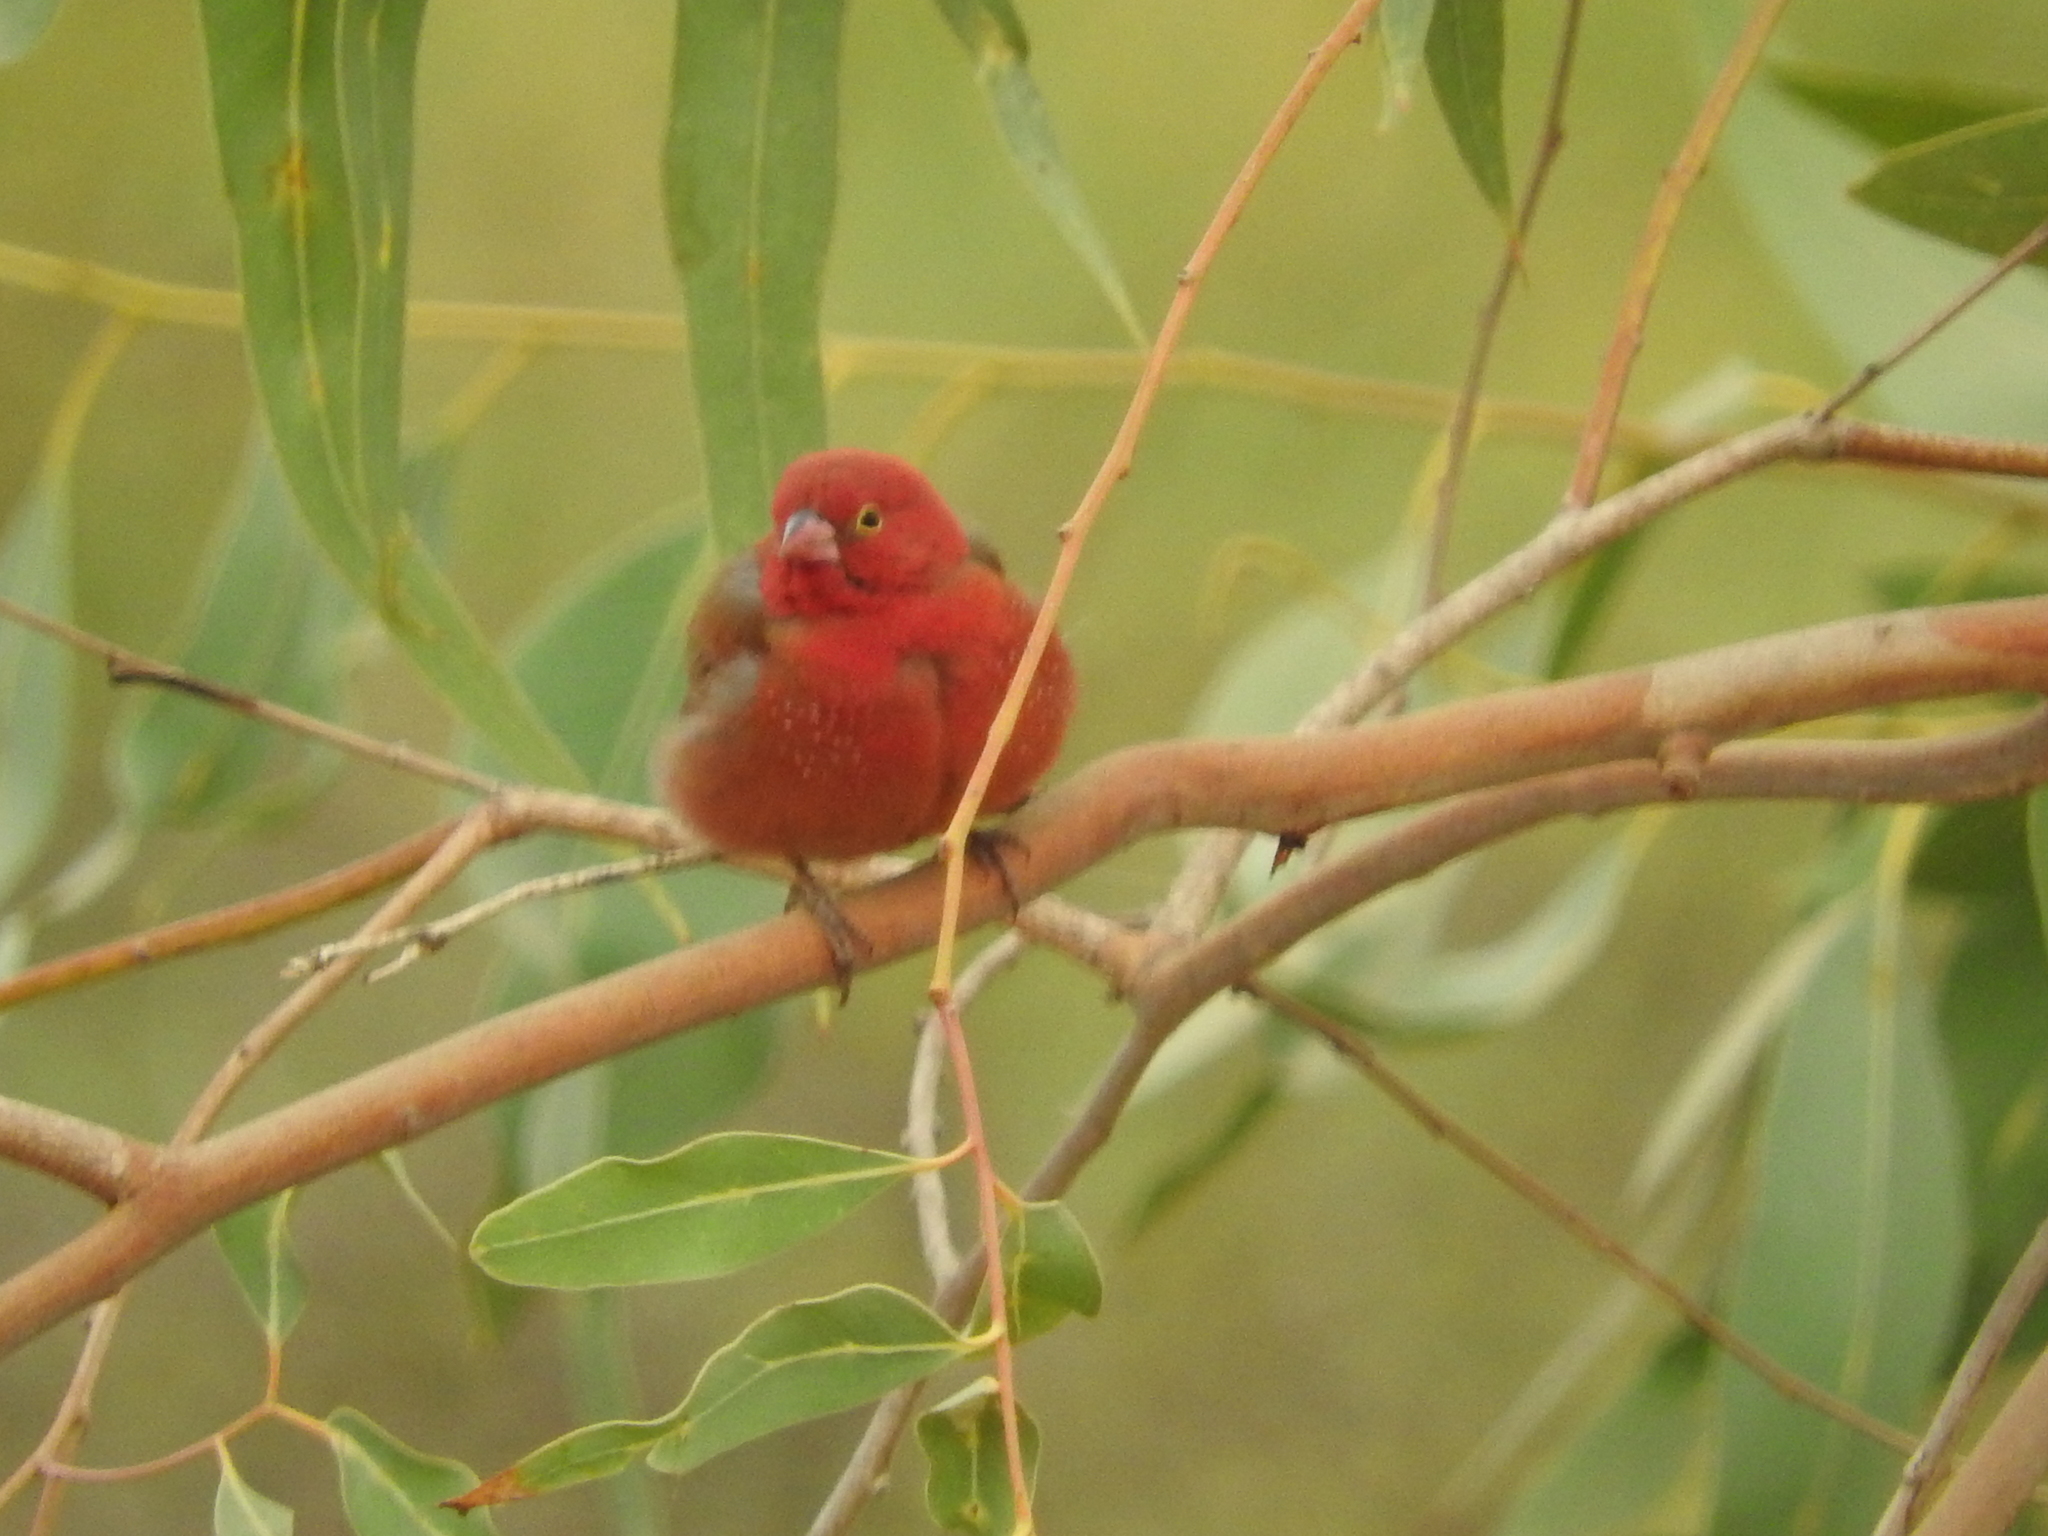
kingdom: Animalia
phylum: Chordata
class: Aves
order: Passeriformes
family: Estrildidae
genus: Lagonosticta
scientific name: Lagonosticta senegala
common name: Red-billed firefinch
